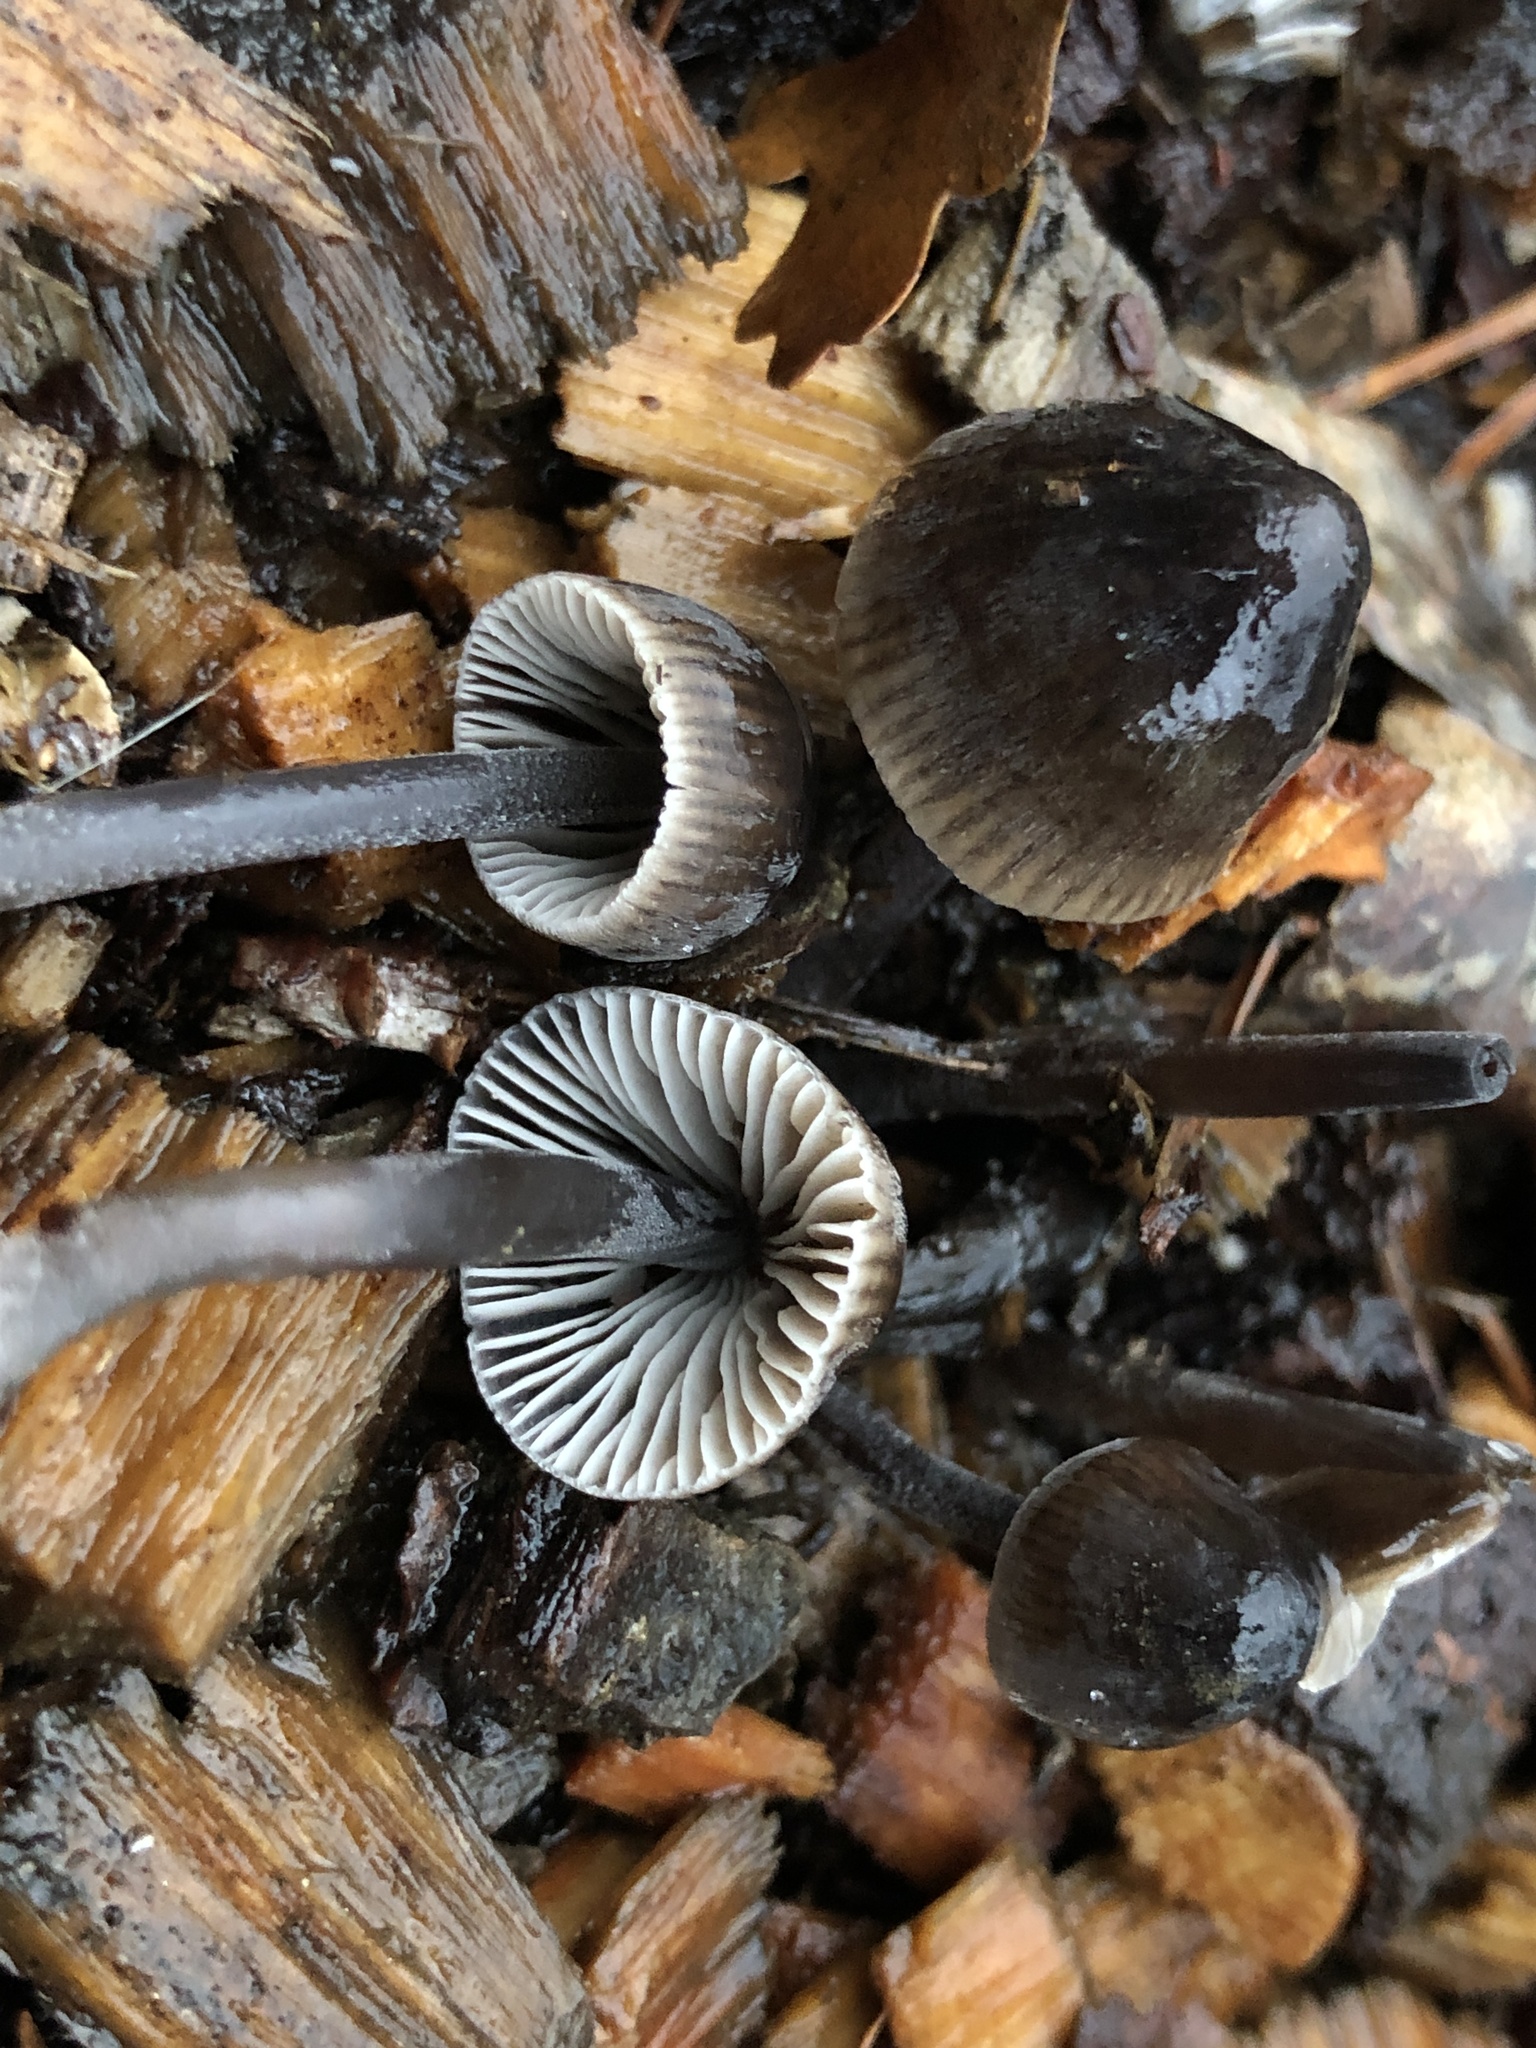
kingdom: Fungi
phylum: Basidiomycota
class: Agaricomycetes
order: Agaricales
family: Mycenaceae
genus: Mycena
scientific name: Mycena leptocephala
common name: Nitrous bonnet
